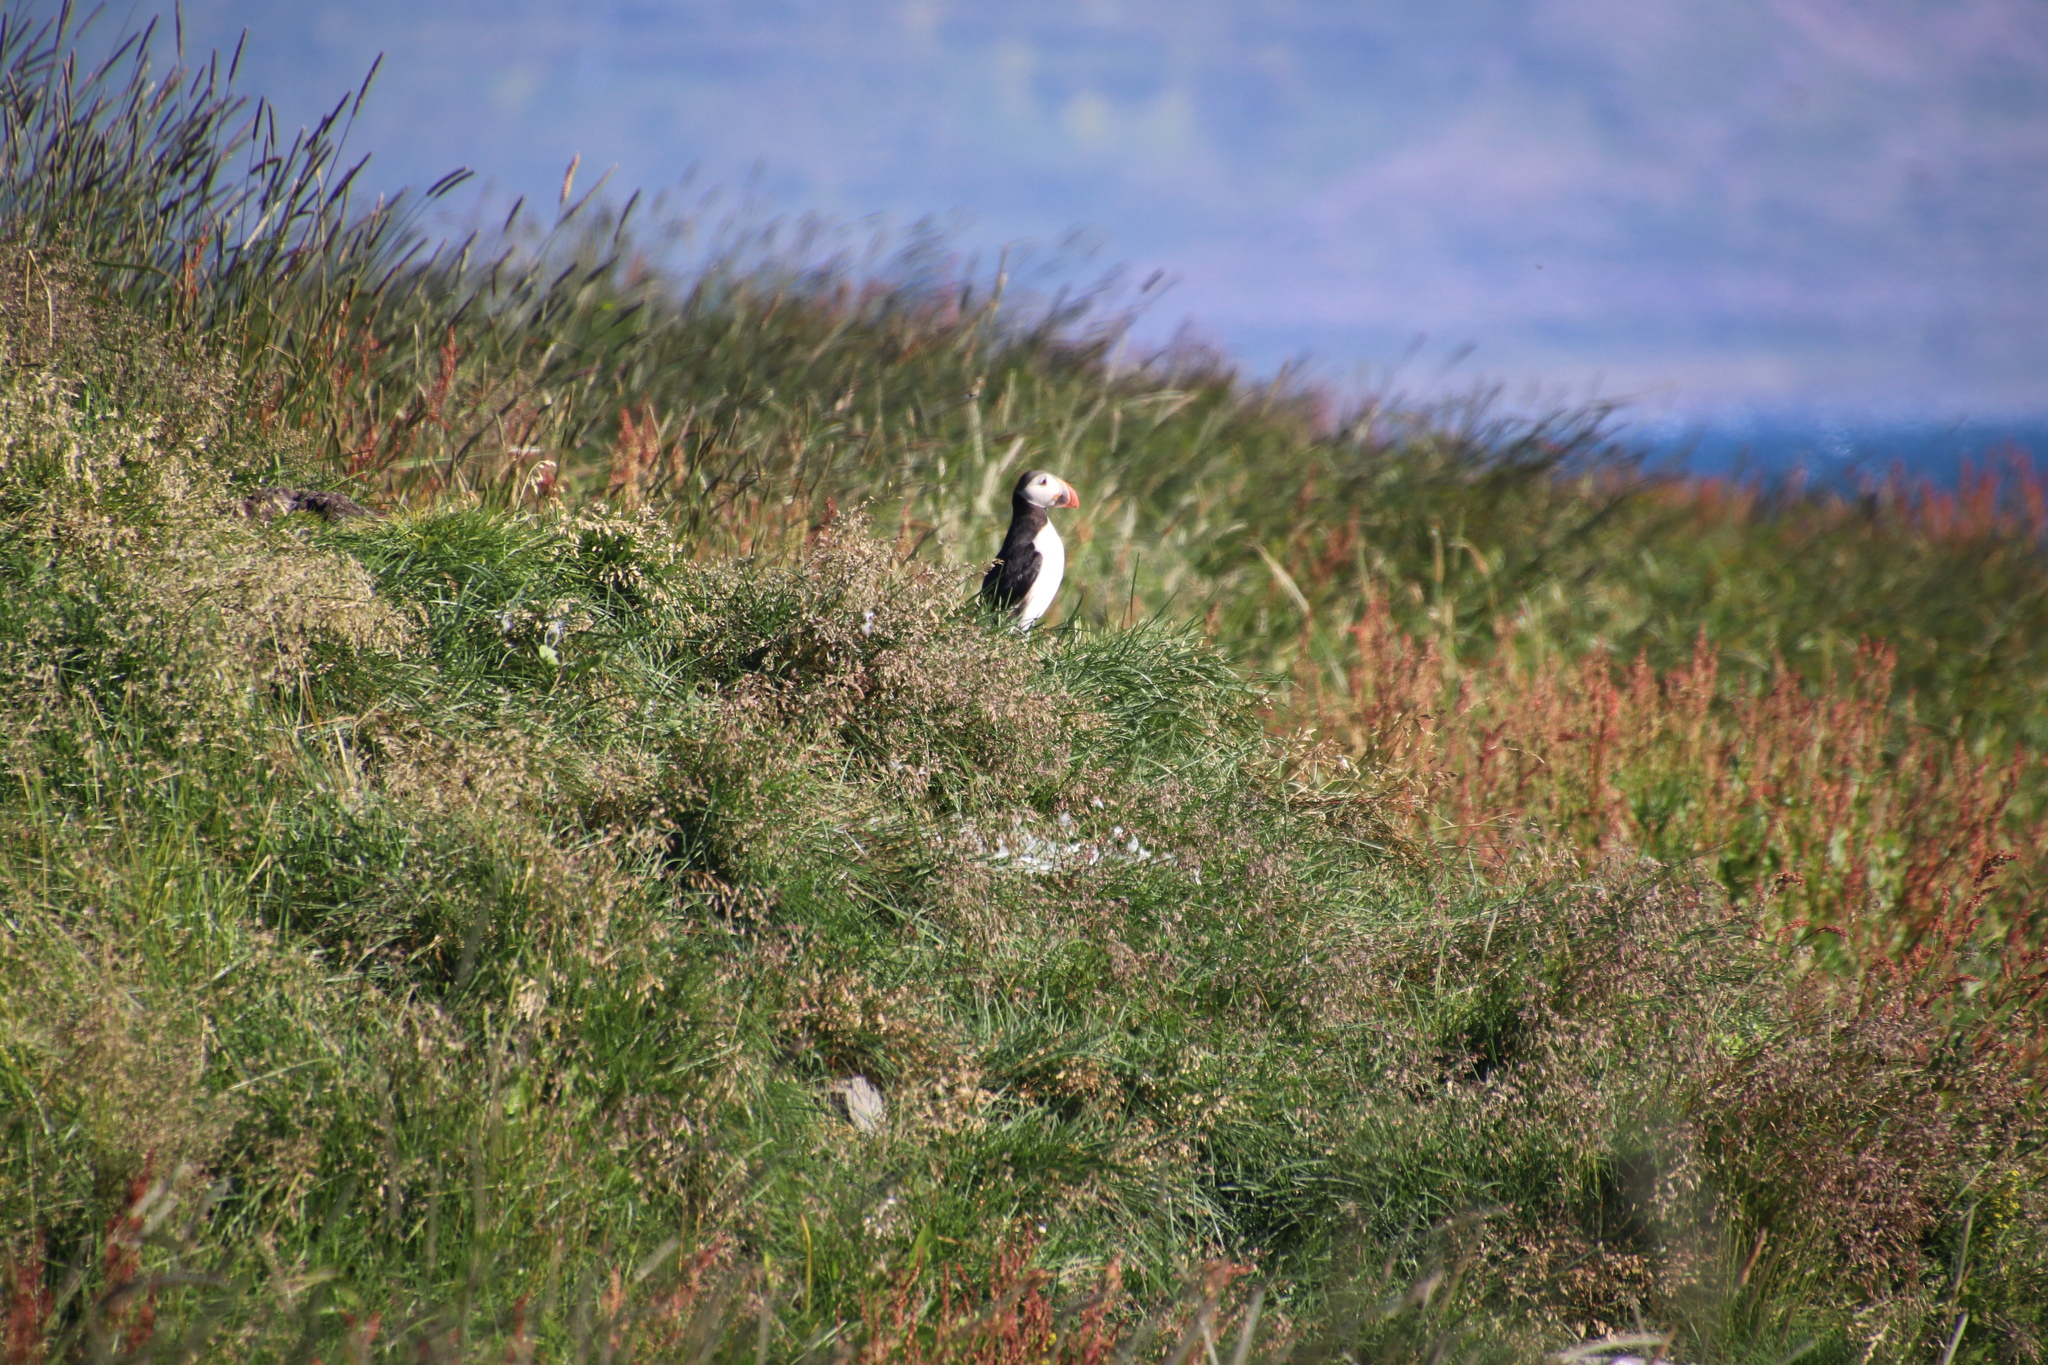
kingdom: Animalia
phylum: Chordata
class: Aves
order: Charadriiformes
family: Alcidae
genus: Fratercula
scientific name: Fratercula arctica
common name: Atlantic puffin
